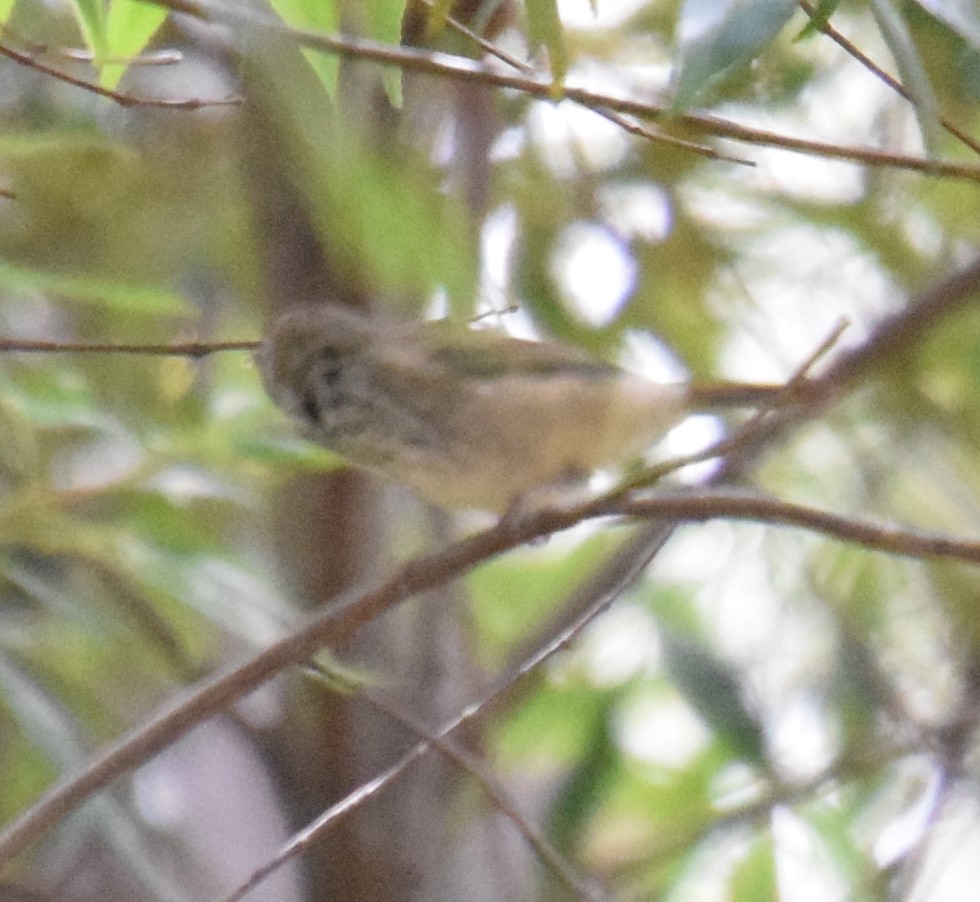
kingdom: Animalia
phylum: Chordata
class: Aves
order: Passeriformes
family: Acanthizidae
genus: Acanthiza
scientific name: Acanthiza pusilla
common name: Brown thornbill
